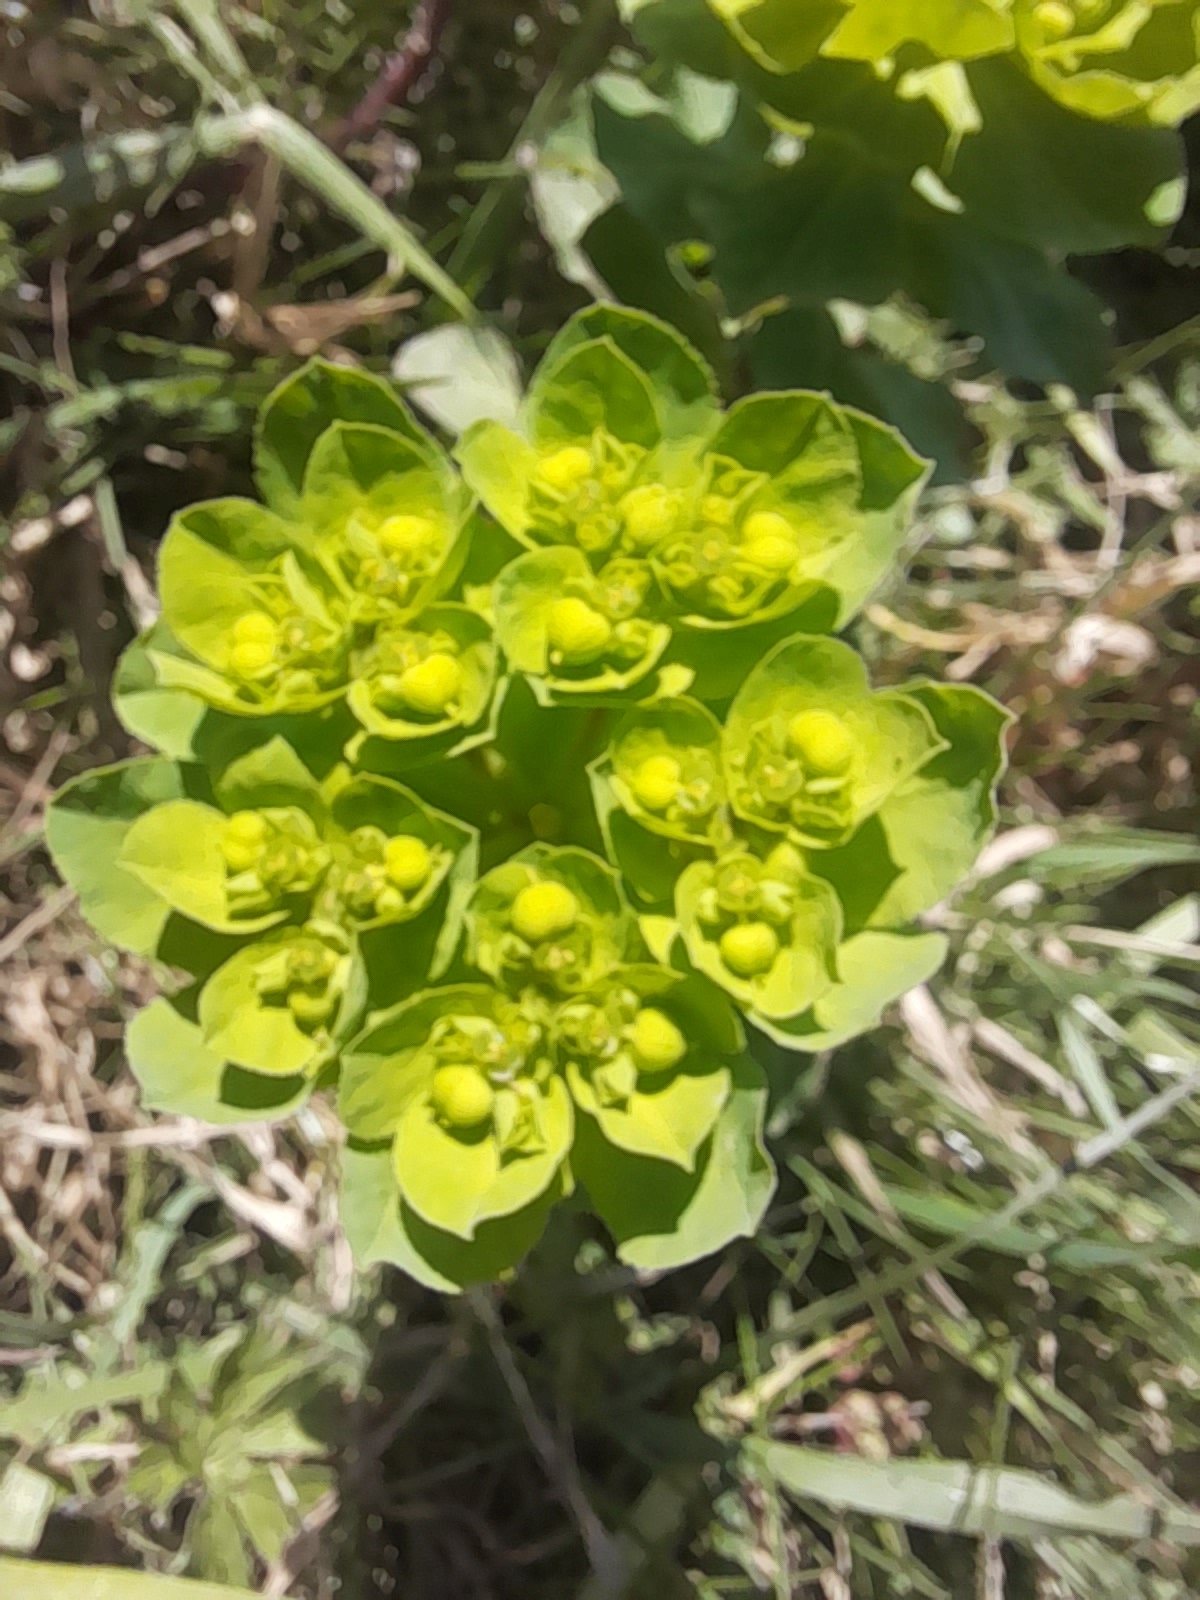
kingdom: Plantae
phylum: Tracheophyta
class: Magnoliopsida
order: Malpighiales
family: Euphorbiaceae
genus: Euphorbia
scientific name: Euphorbia helioscopia
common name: Sun spurge
